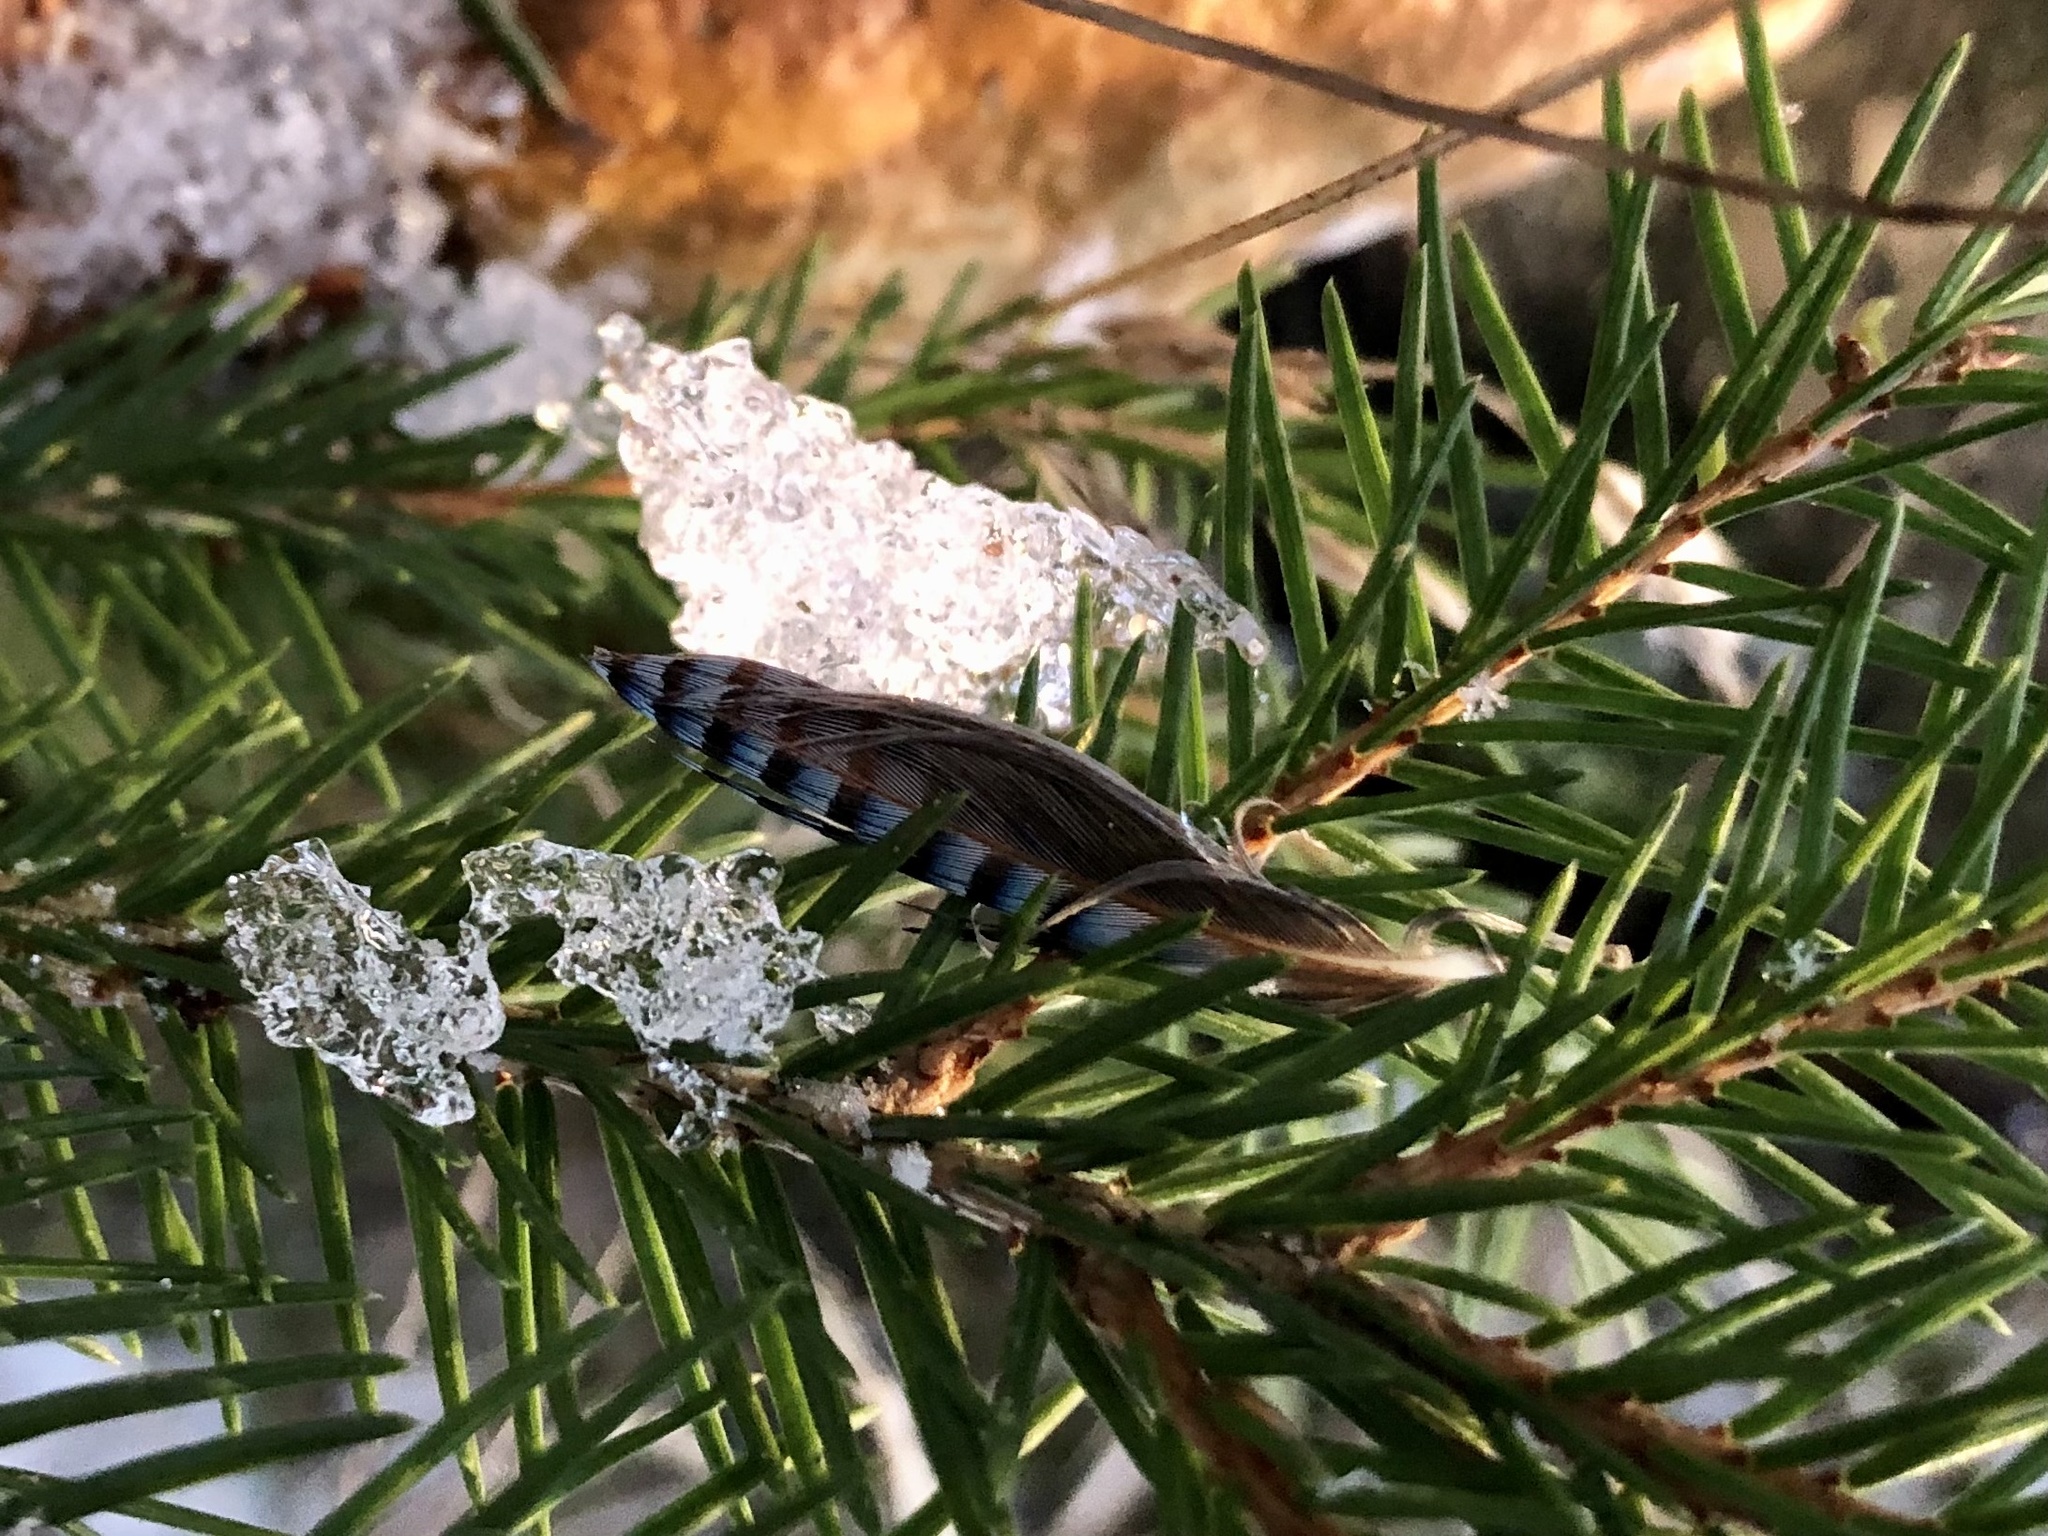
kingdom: Animalia
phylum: Chordata
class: Aves
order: Passeriformes
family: Corvidae
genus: Garrulus
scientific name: Garrulus glandarius
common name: Eurasian jay
